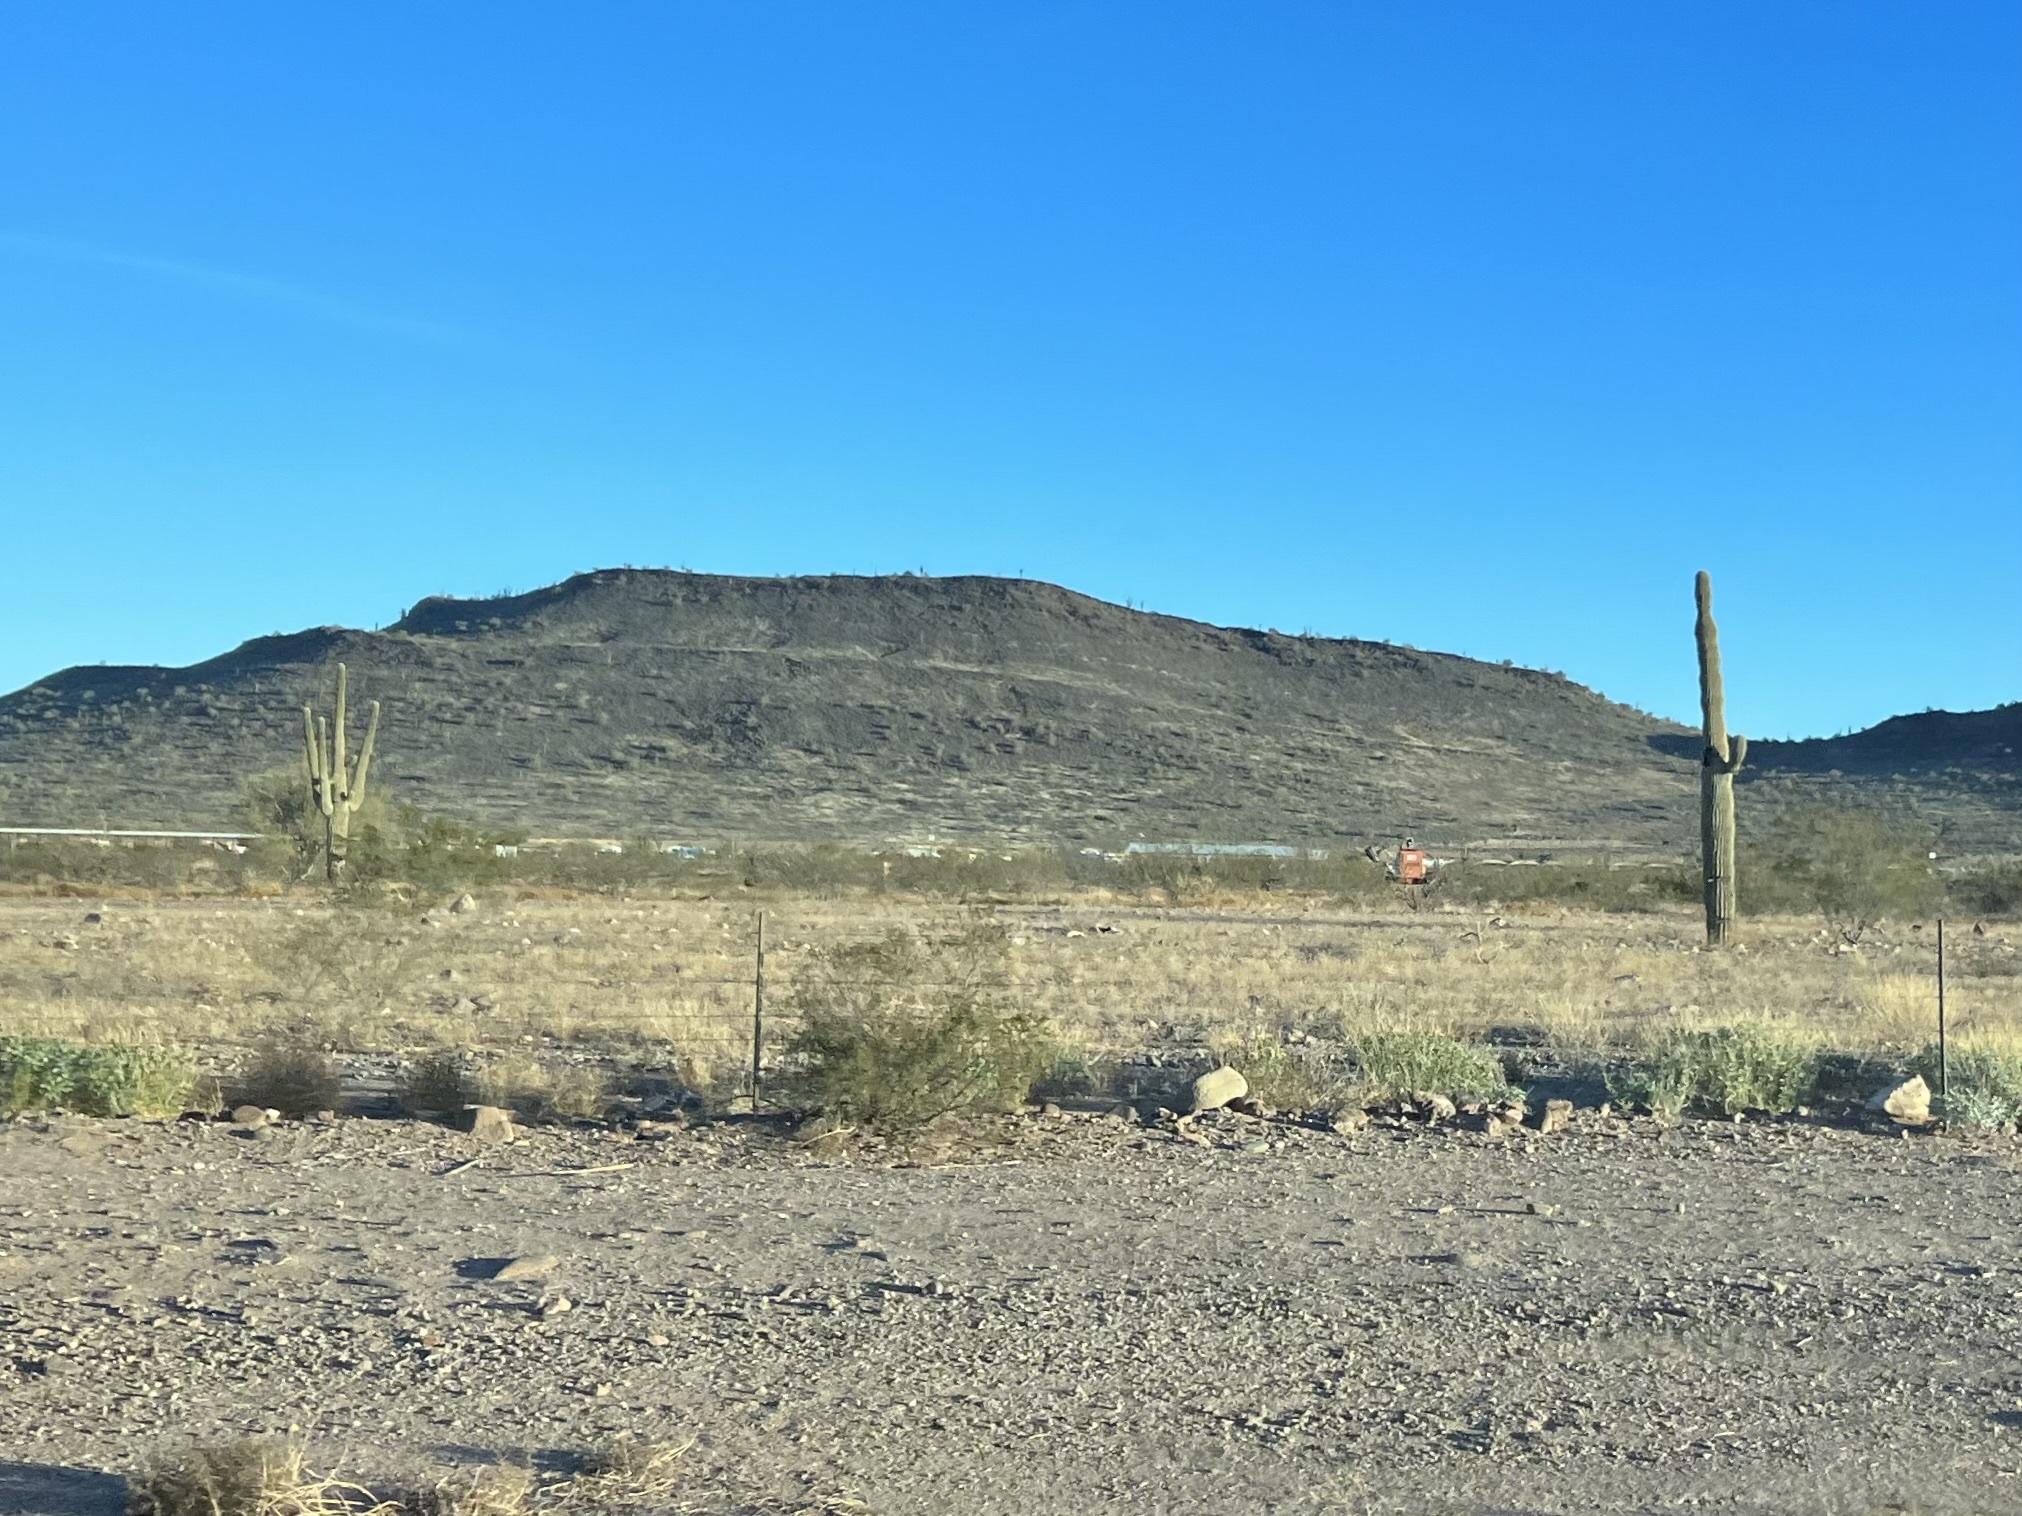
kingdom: Plantae
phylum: Tracheophyta
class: Magnoliopsida
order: Caryophyllales
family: Cactaceae
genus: Carnegiea
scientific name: Carnegiea gigantea
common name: Saguaro
